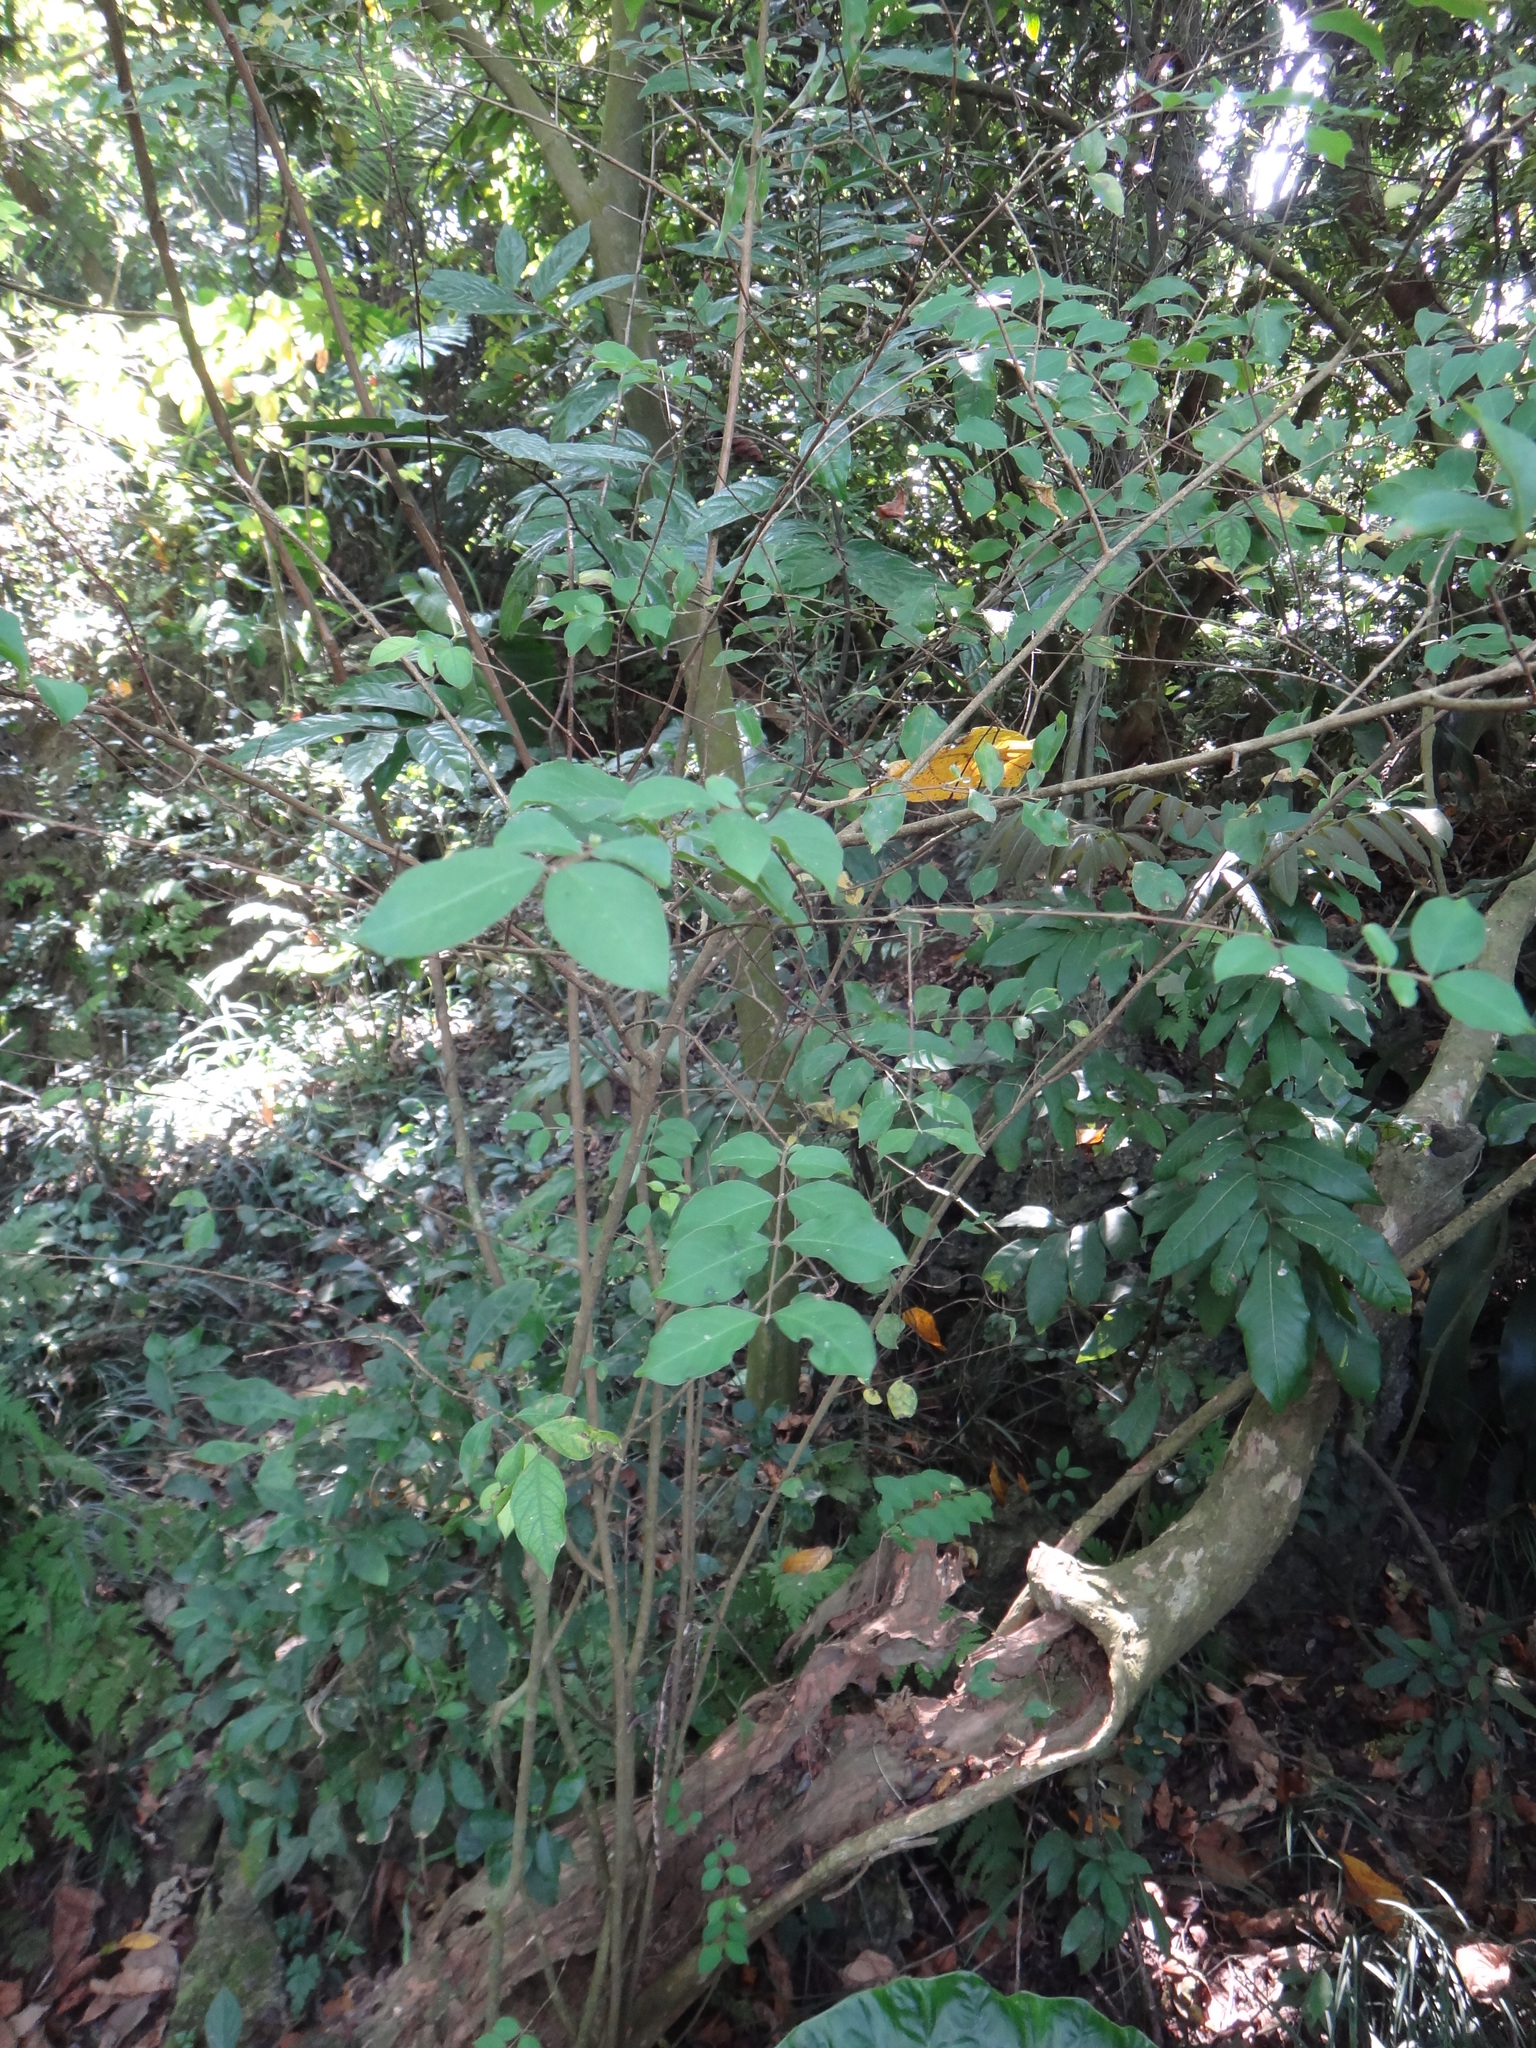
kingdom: Plantae
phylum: Tracheophyta
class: Magnoliopsida
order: Myrtales
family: Lythraceae
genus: Lagerstroemia
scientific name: Lagerstroemia subcostata
